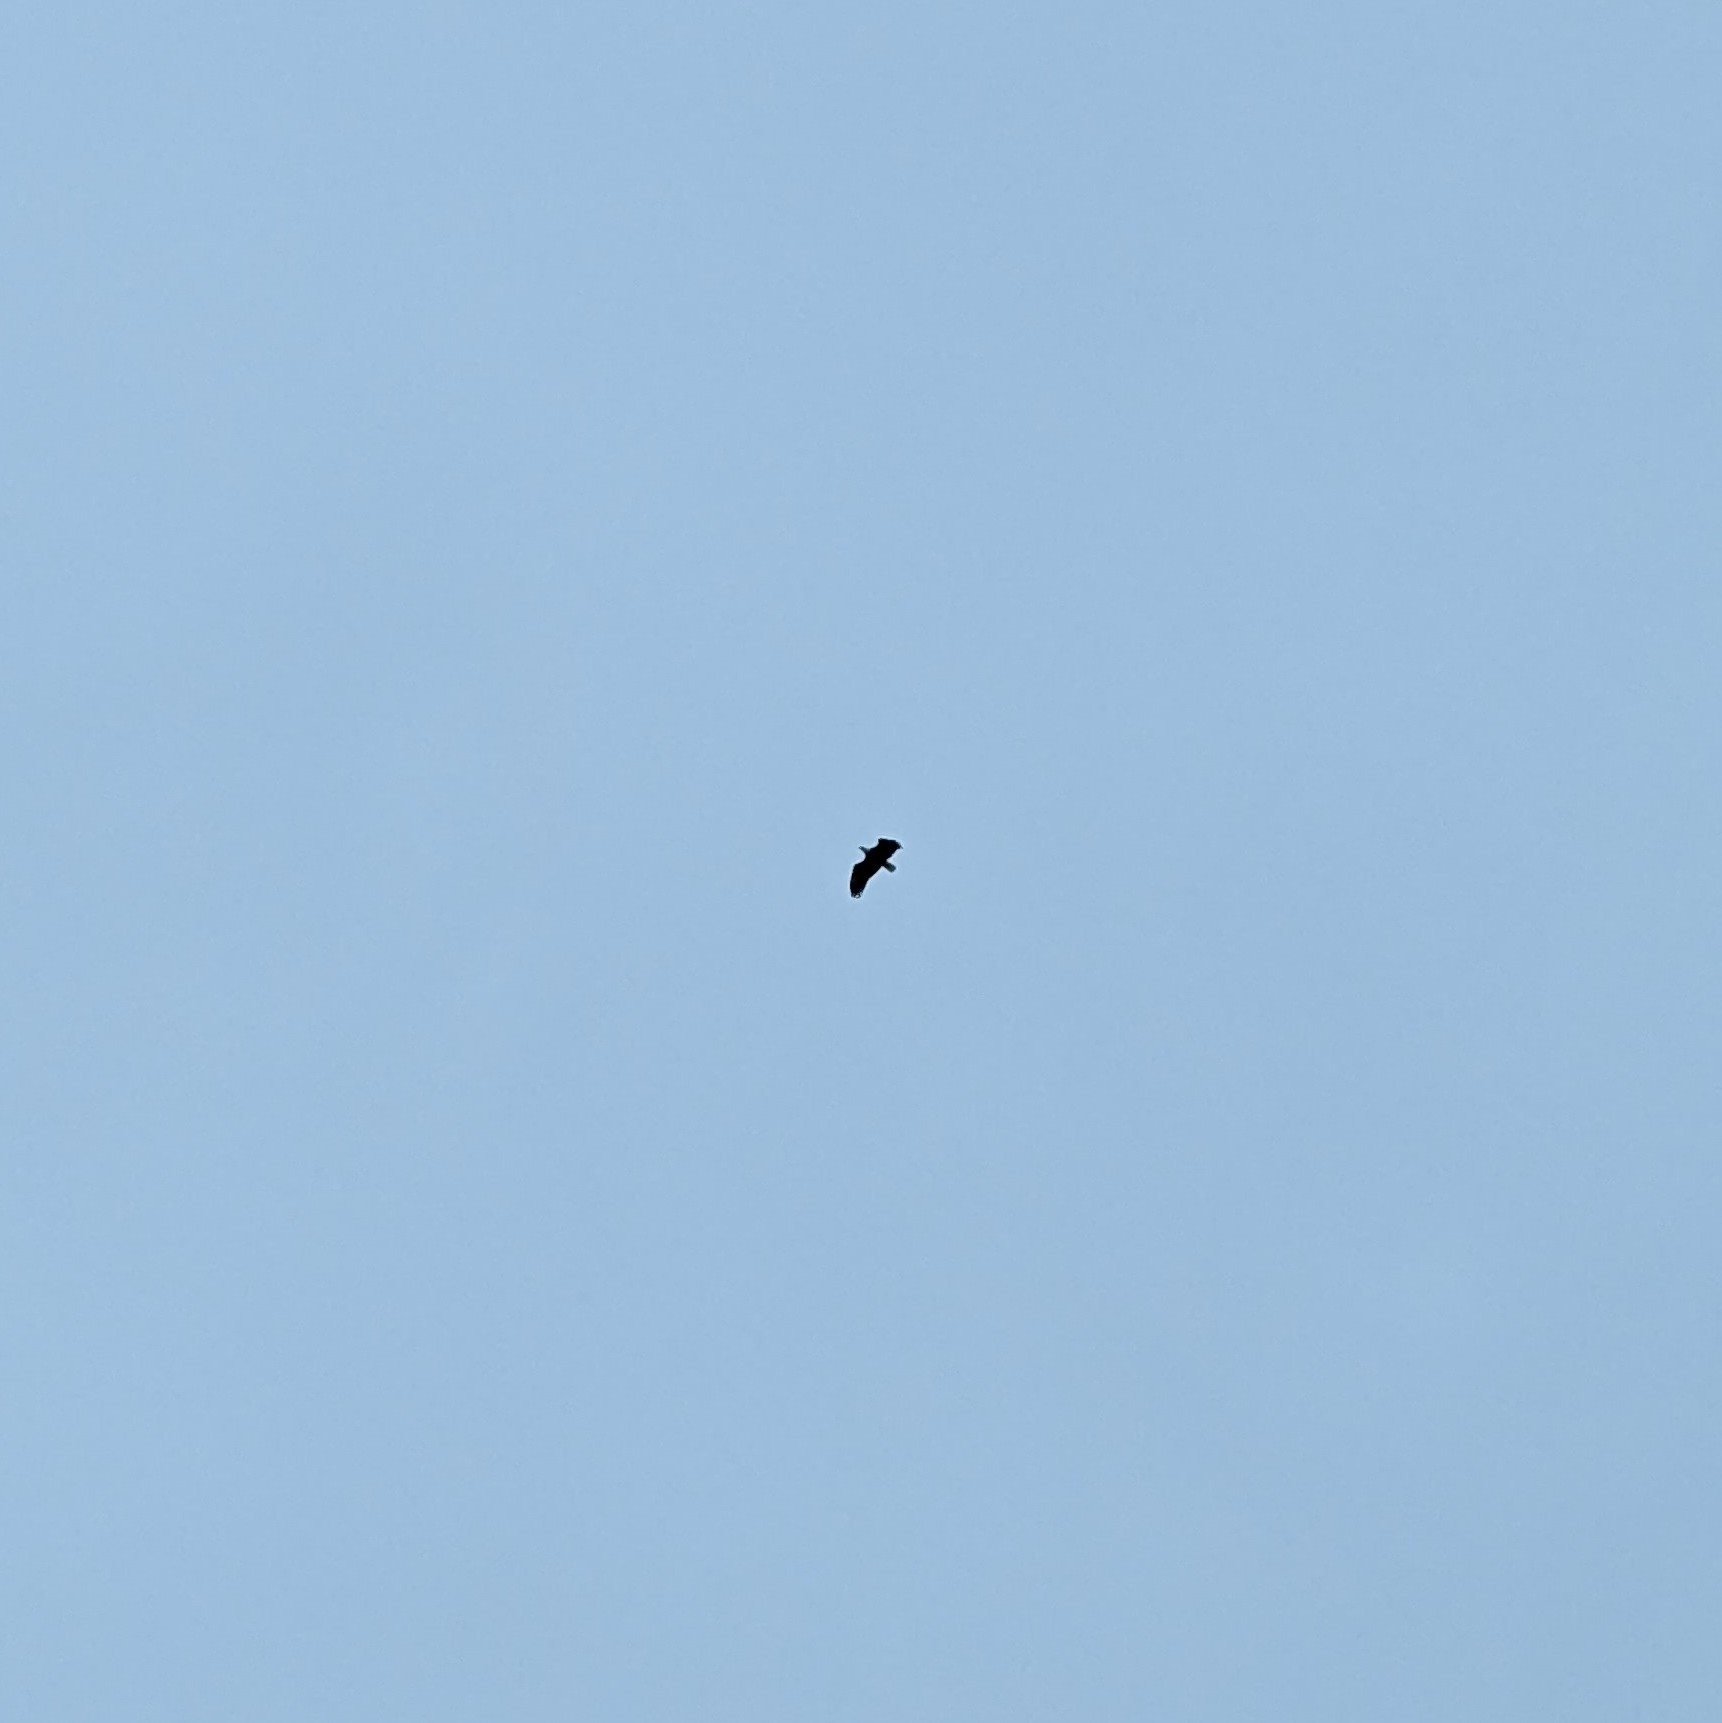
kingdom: Animalia
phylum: Chordata
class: Aves
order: Accipitriformes
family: Accipitridae
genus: Haliaeetus
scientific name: Haliaeetus leucocephalus
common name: Bald eagle
